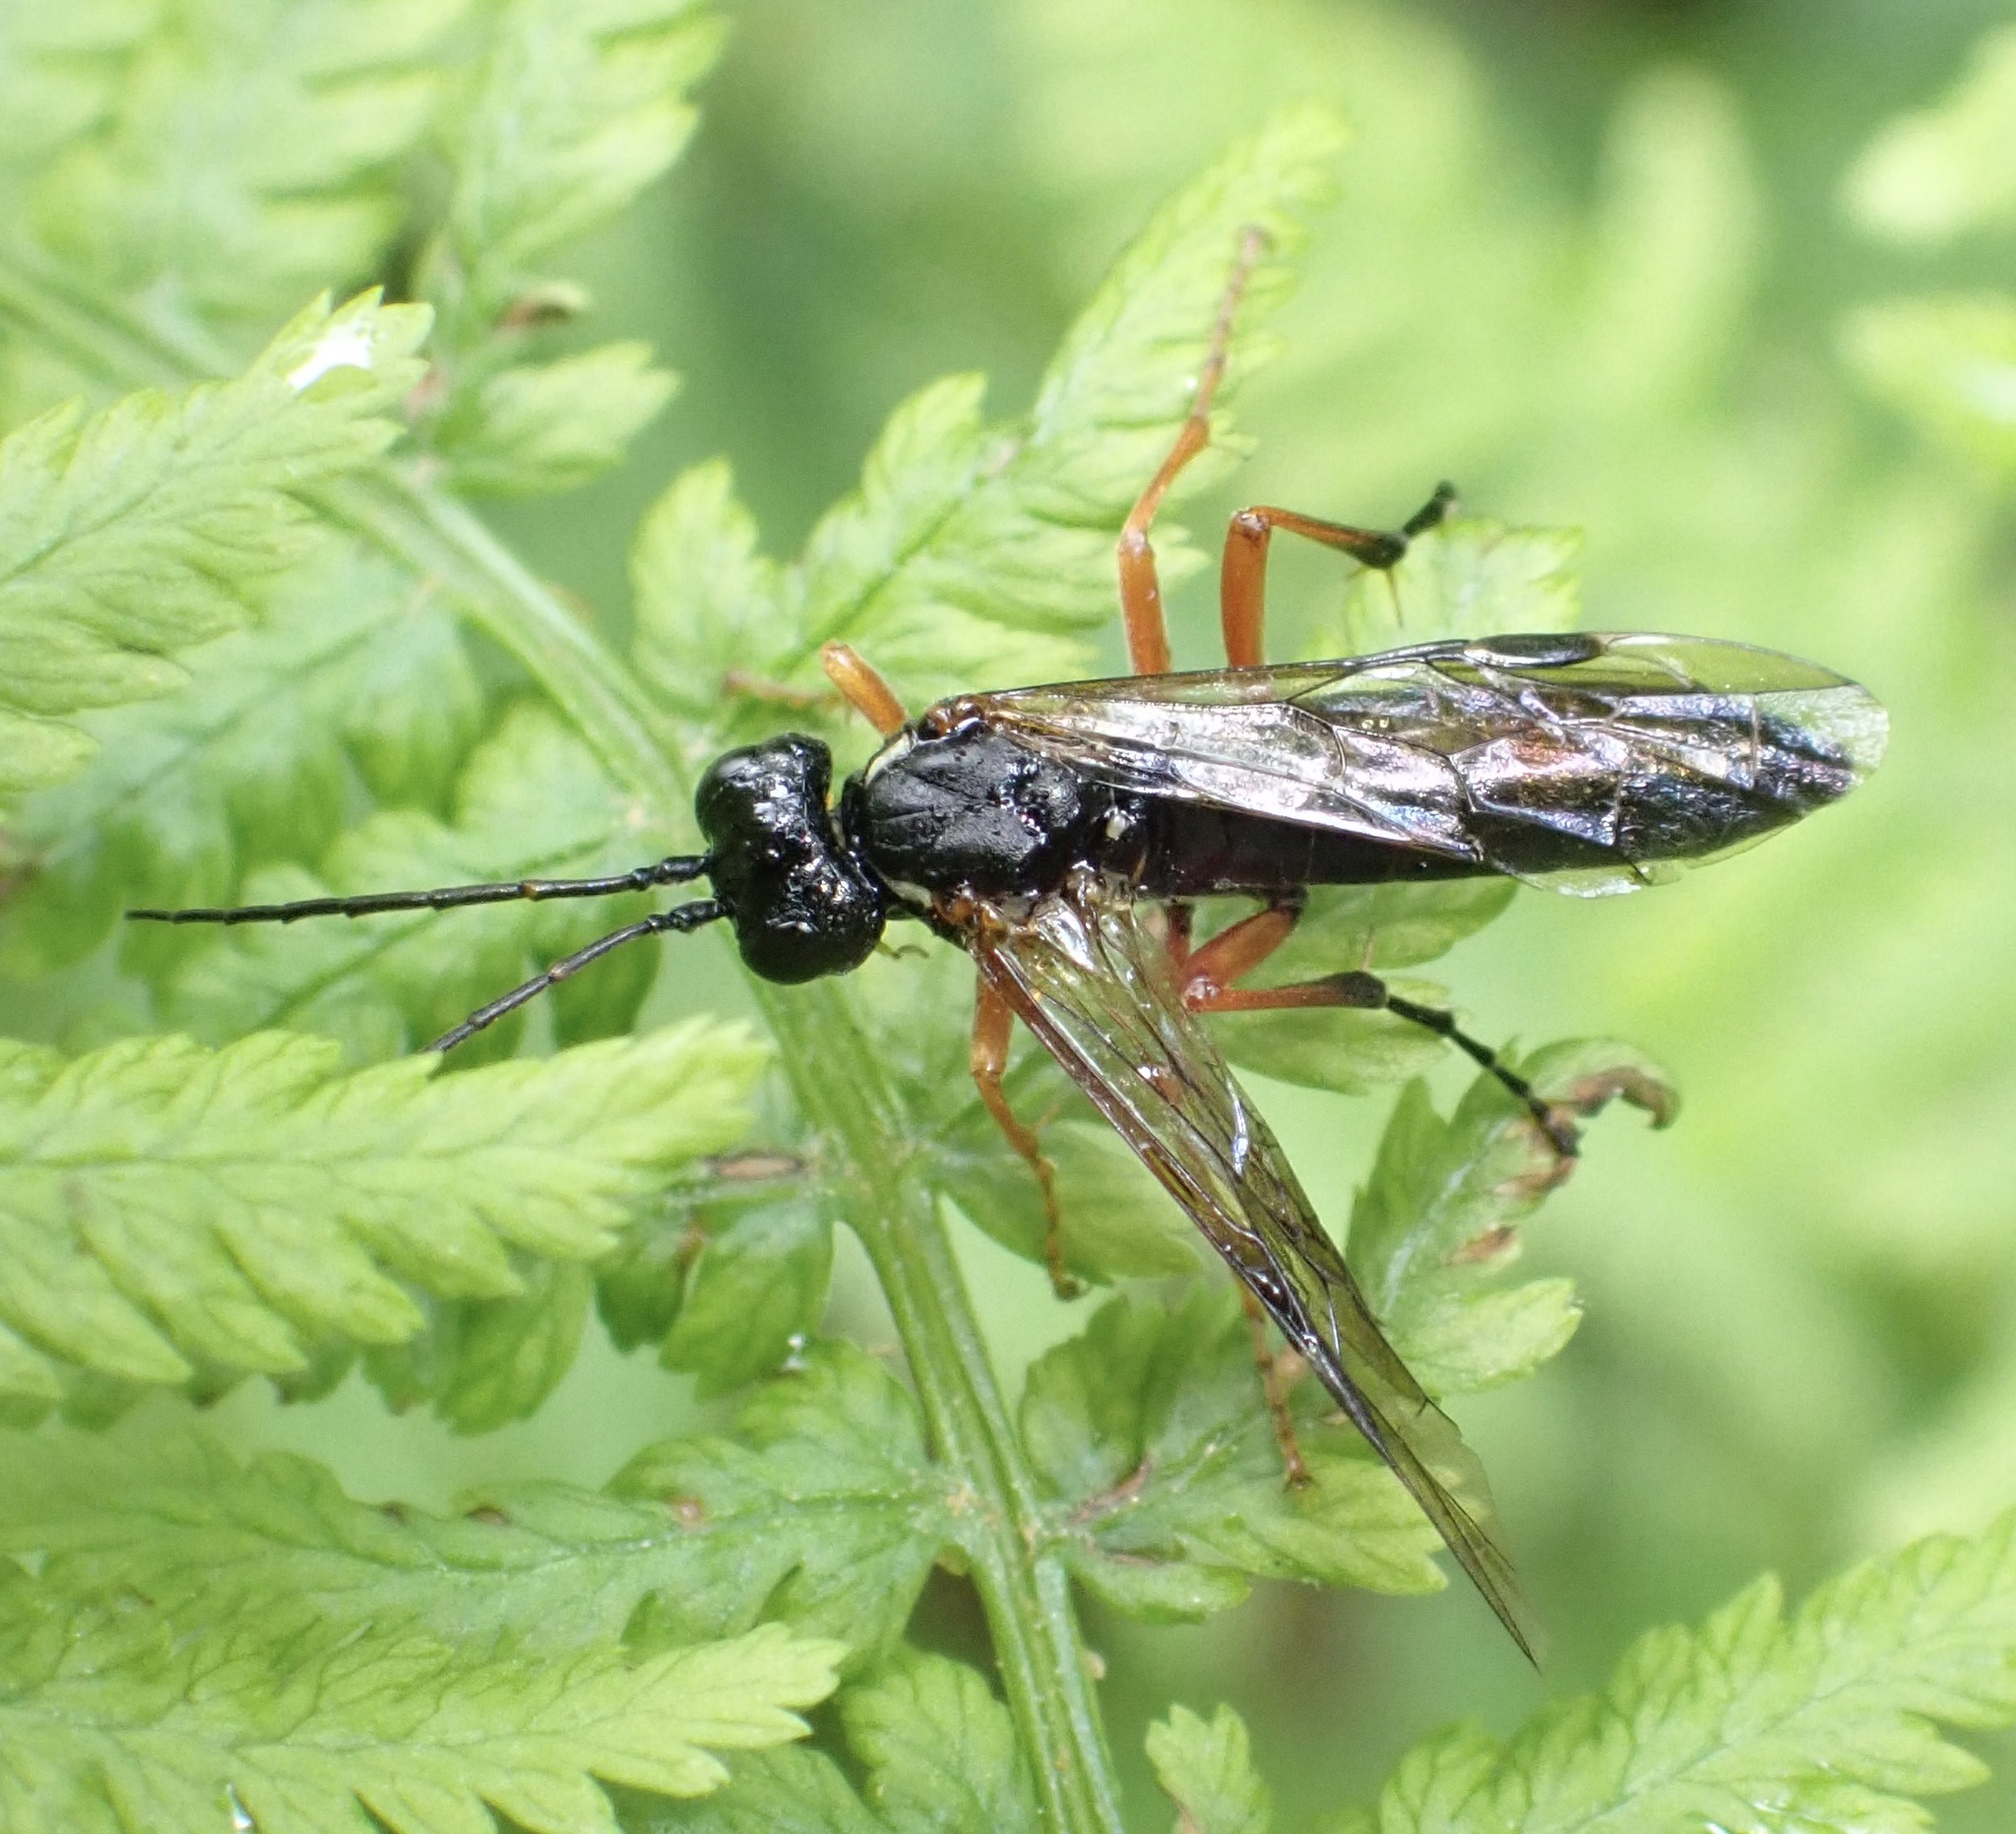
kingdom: Animalia
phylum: Arthropoda
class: Insecta
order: Hymenoptera
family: Tenthredinidae
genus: Tenthredo
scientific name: Tenthredo atra
